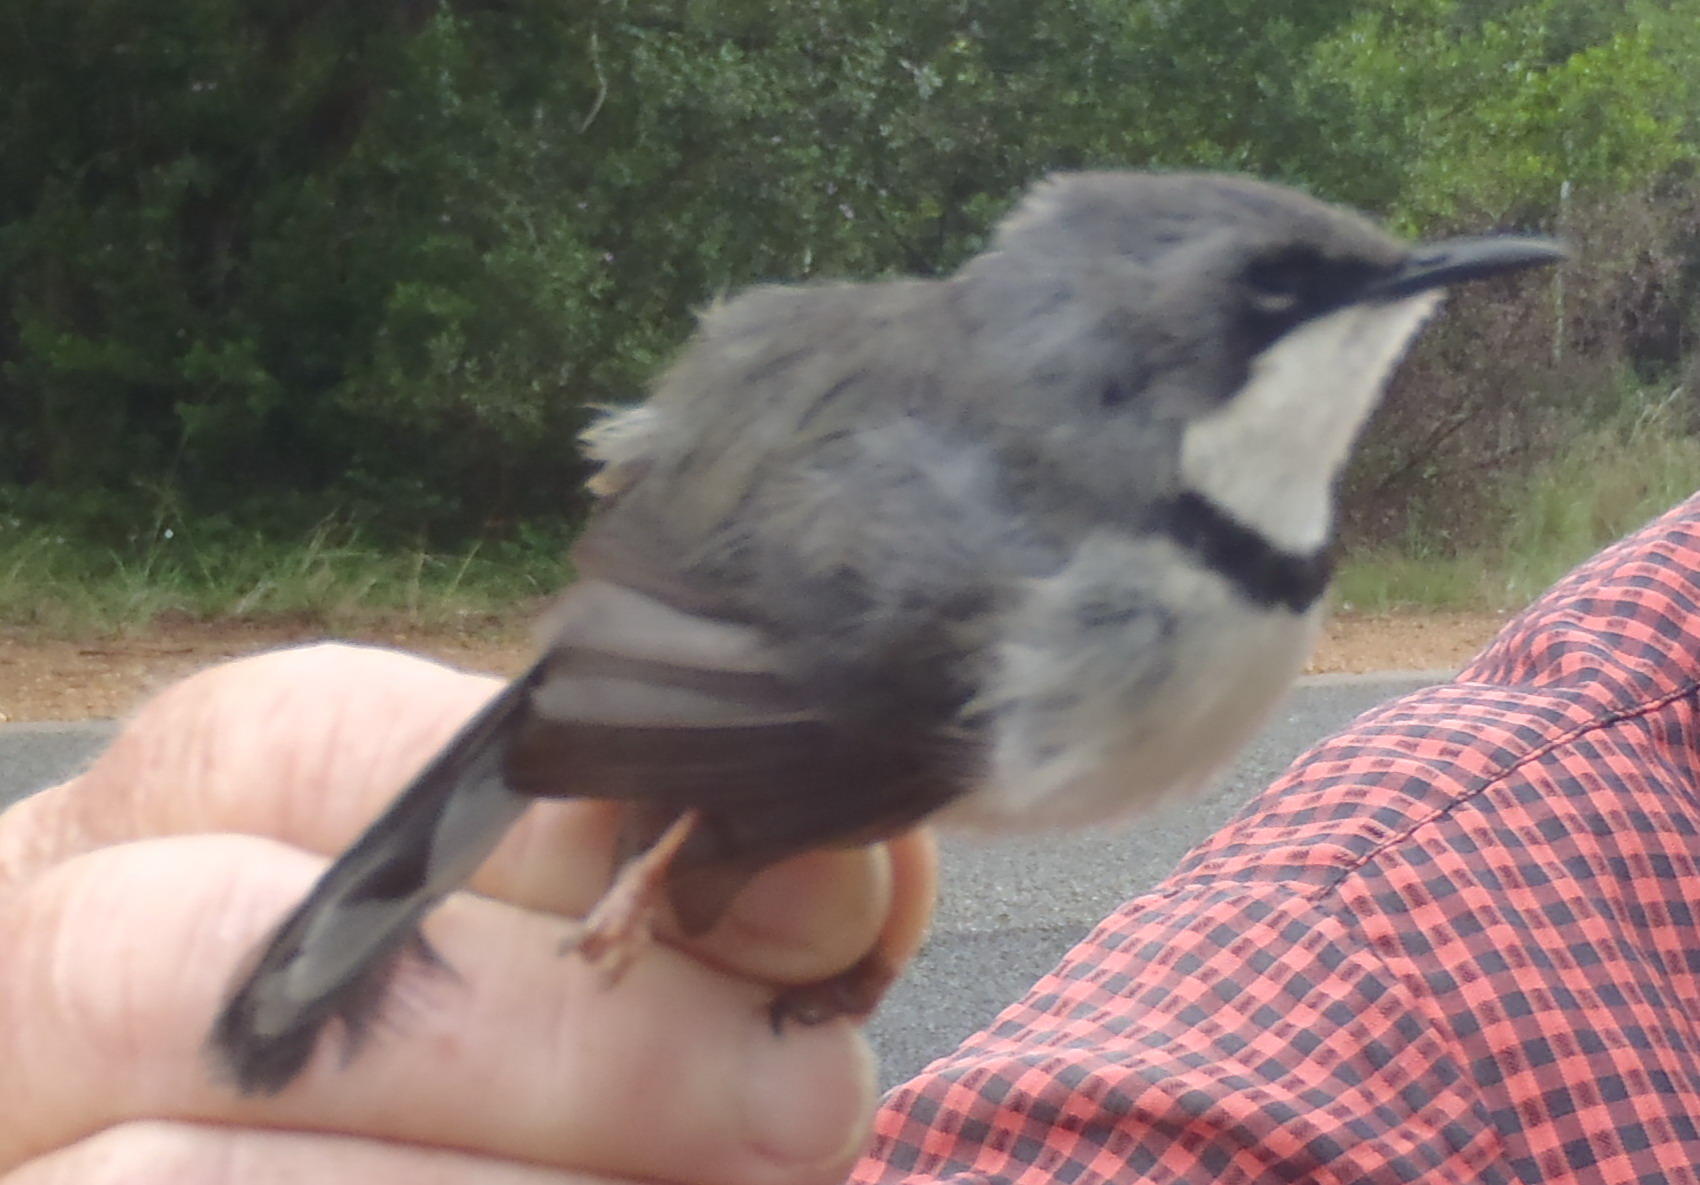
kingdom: Animalia
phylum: Chordata
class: Aves
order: Passeriformes
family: Cisticolidae
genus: Apalis
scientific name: Apalis thoracica
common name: Bar-throated apalis
